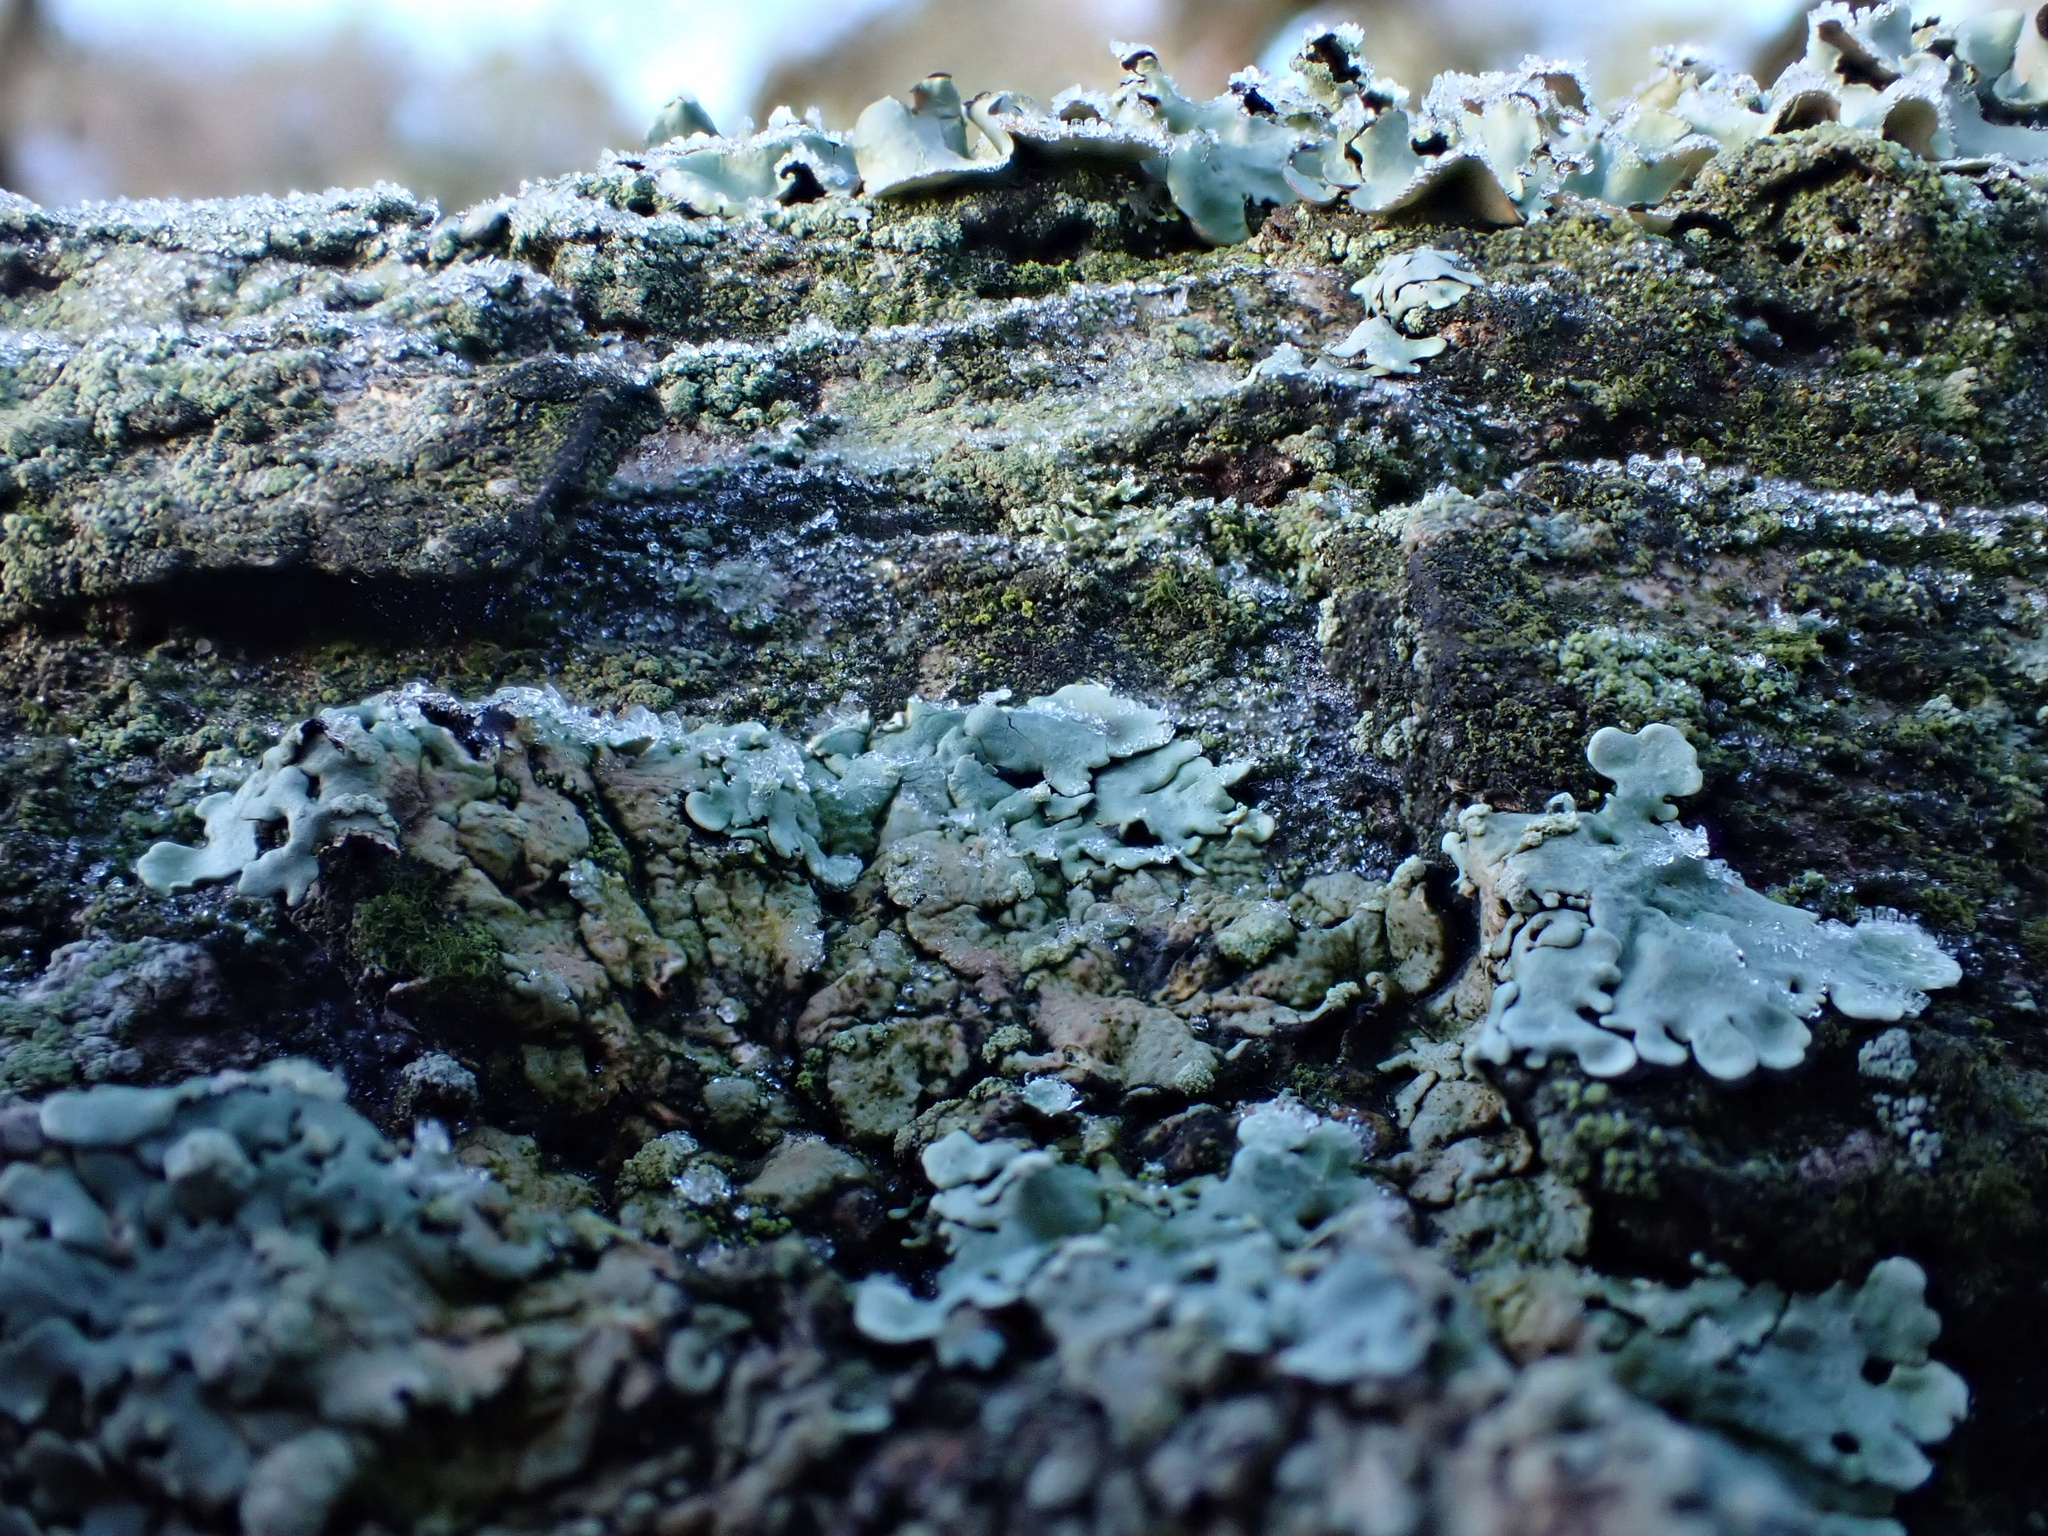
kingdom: Fungi
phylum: Ascomycota
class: Lecanoromycetes
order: Caliciales
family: Physciaceae
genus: Physcia
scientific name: Physcia tribacioides
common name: Southern grey physcia
